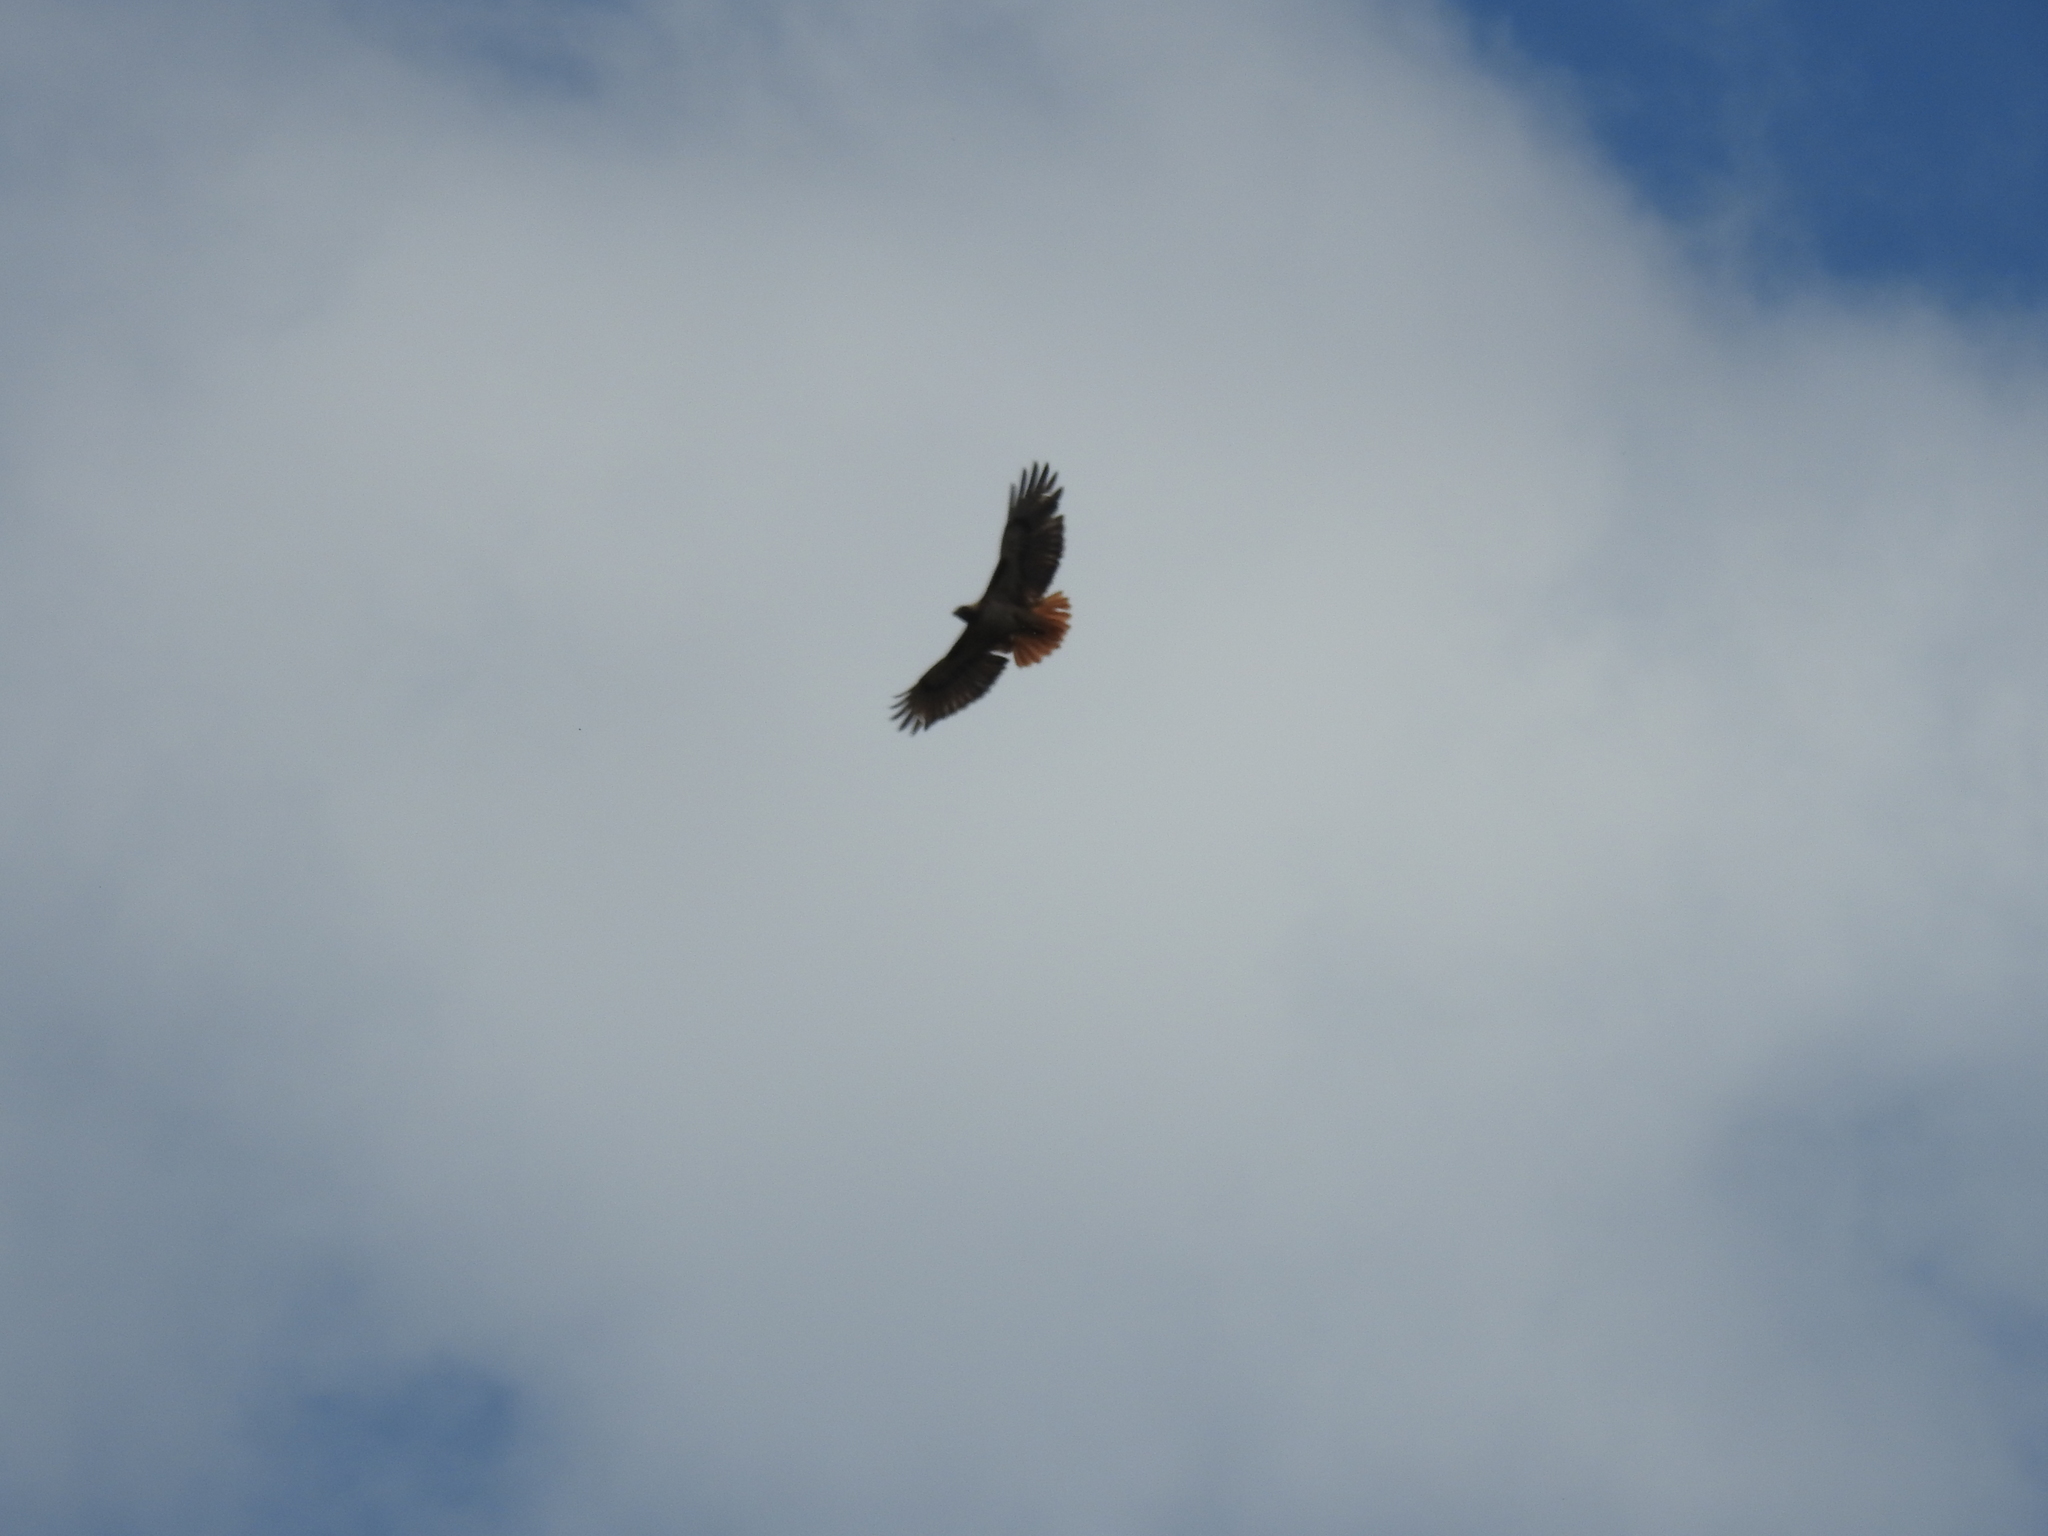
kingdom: Animalia
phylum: Chordata
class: Aves
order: Accipitriformes
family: Accipitridae
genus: Buteo
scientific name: Buteo jamaicensis
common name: Red-tailed hawk
